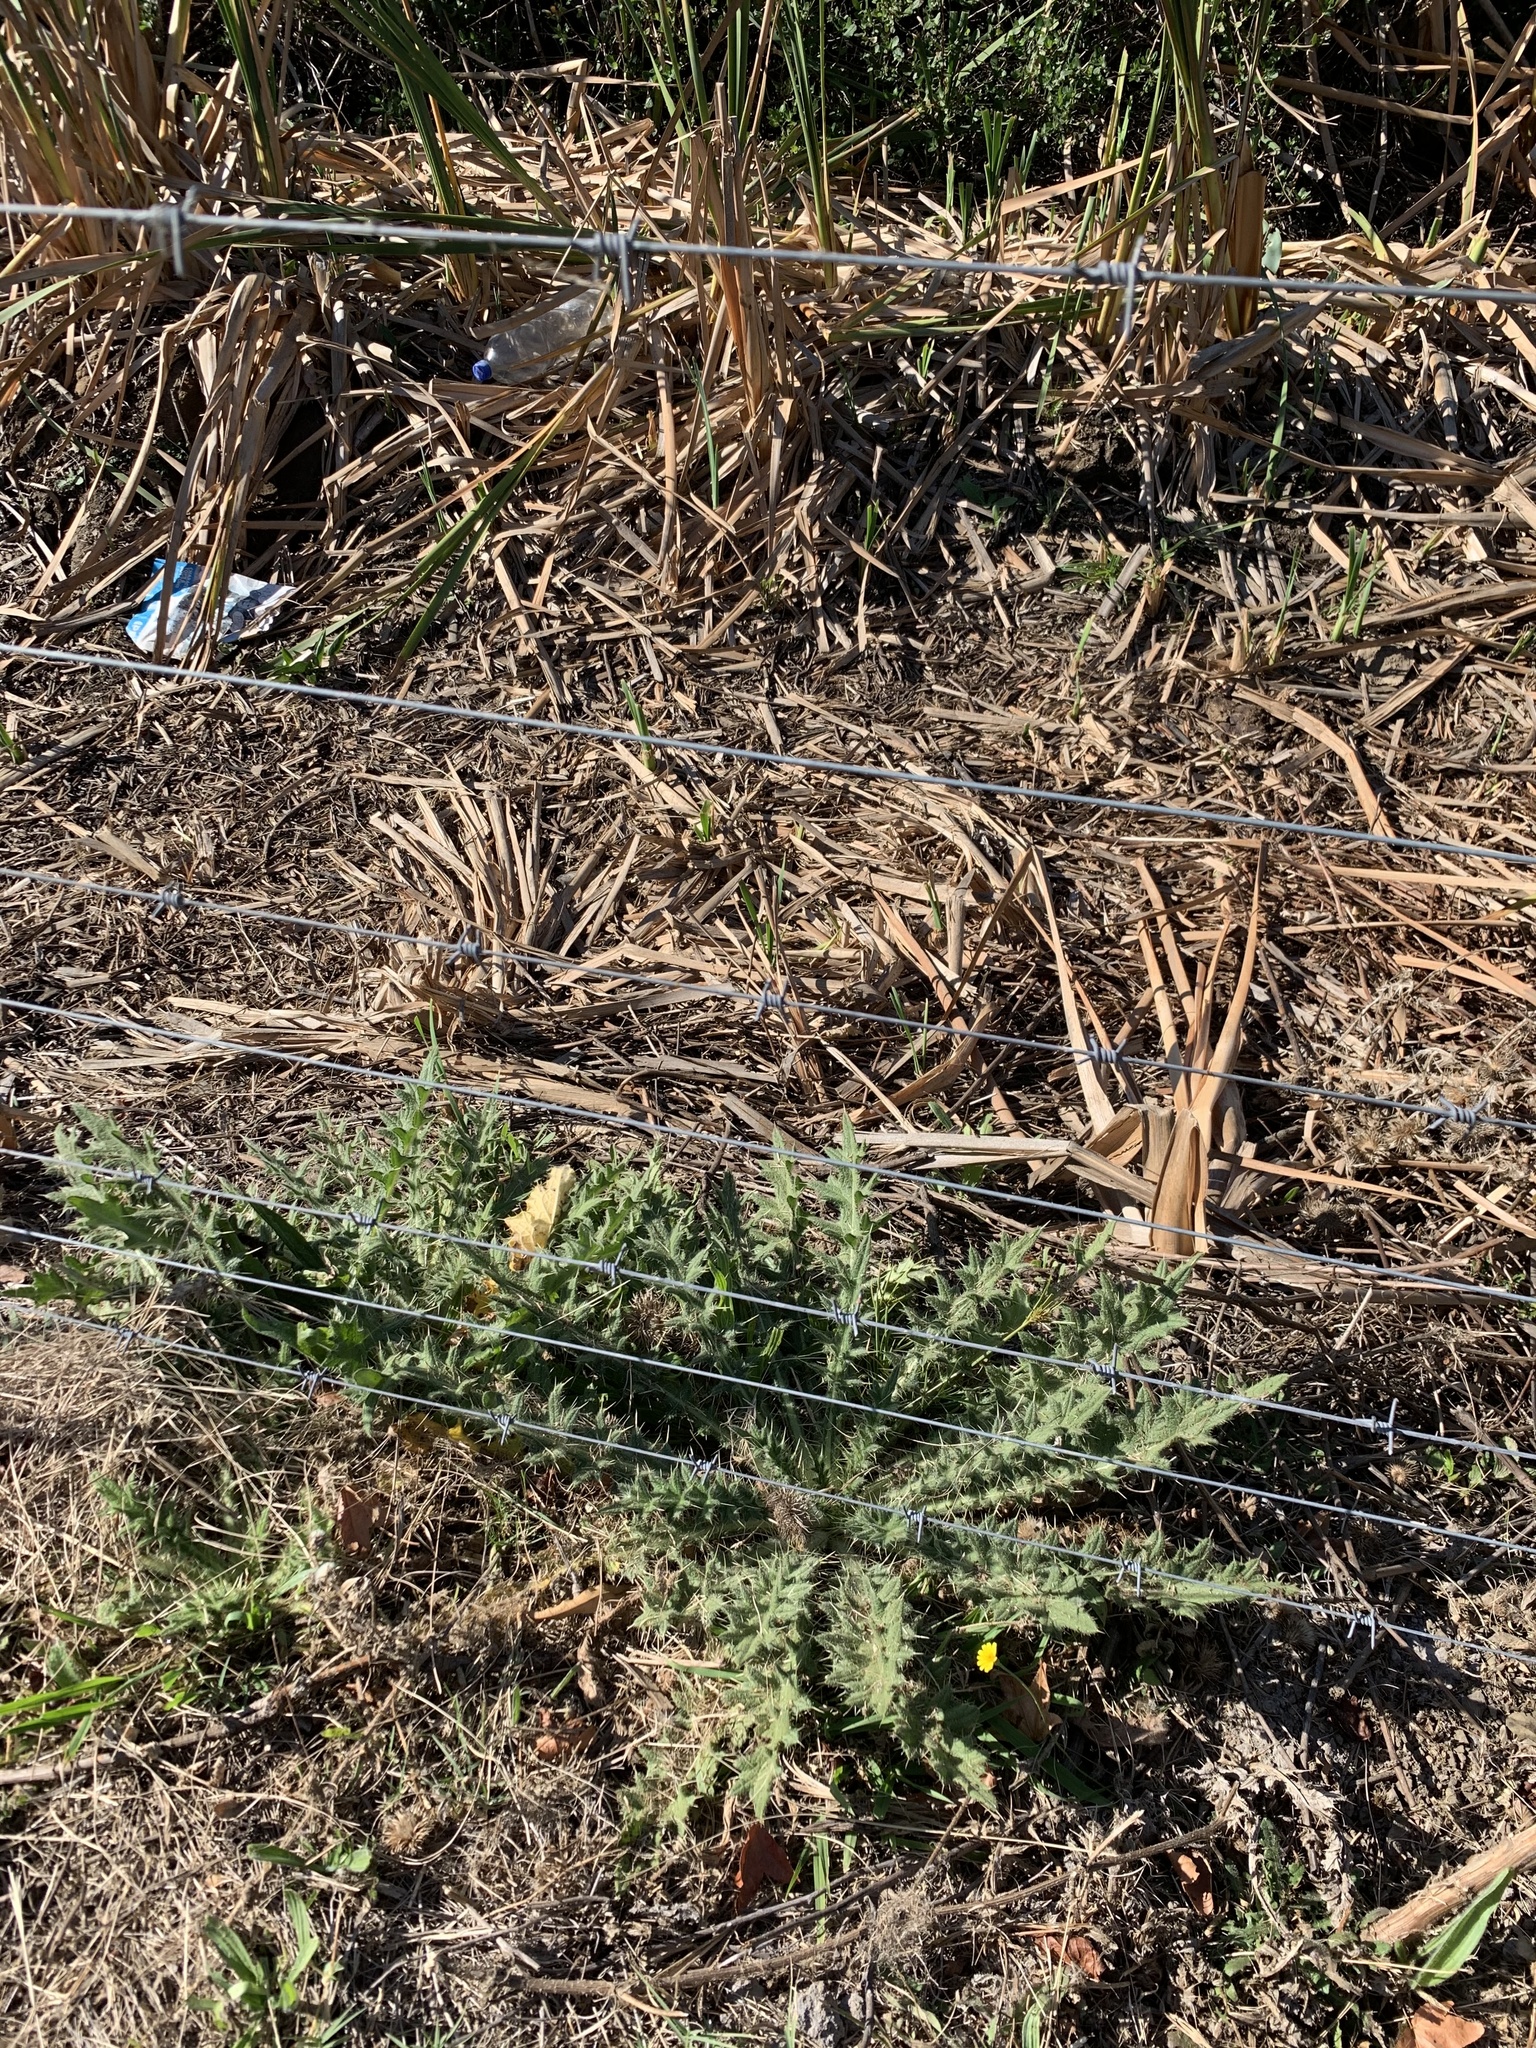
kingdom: Plantae
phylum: Tracheophyta
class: Magnoliopsida
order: Asterales
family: Asteraceae
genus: Cirsium
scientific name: Cirsium vulgare
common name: Bull thistle
